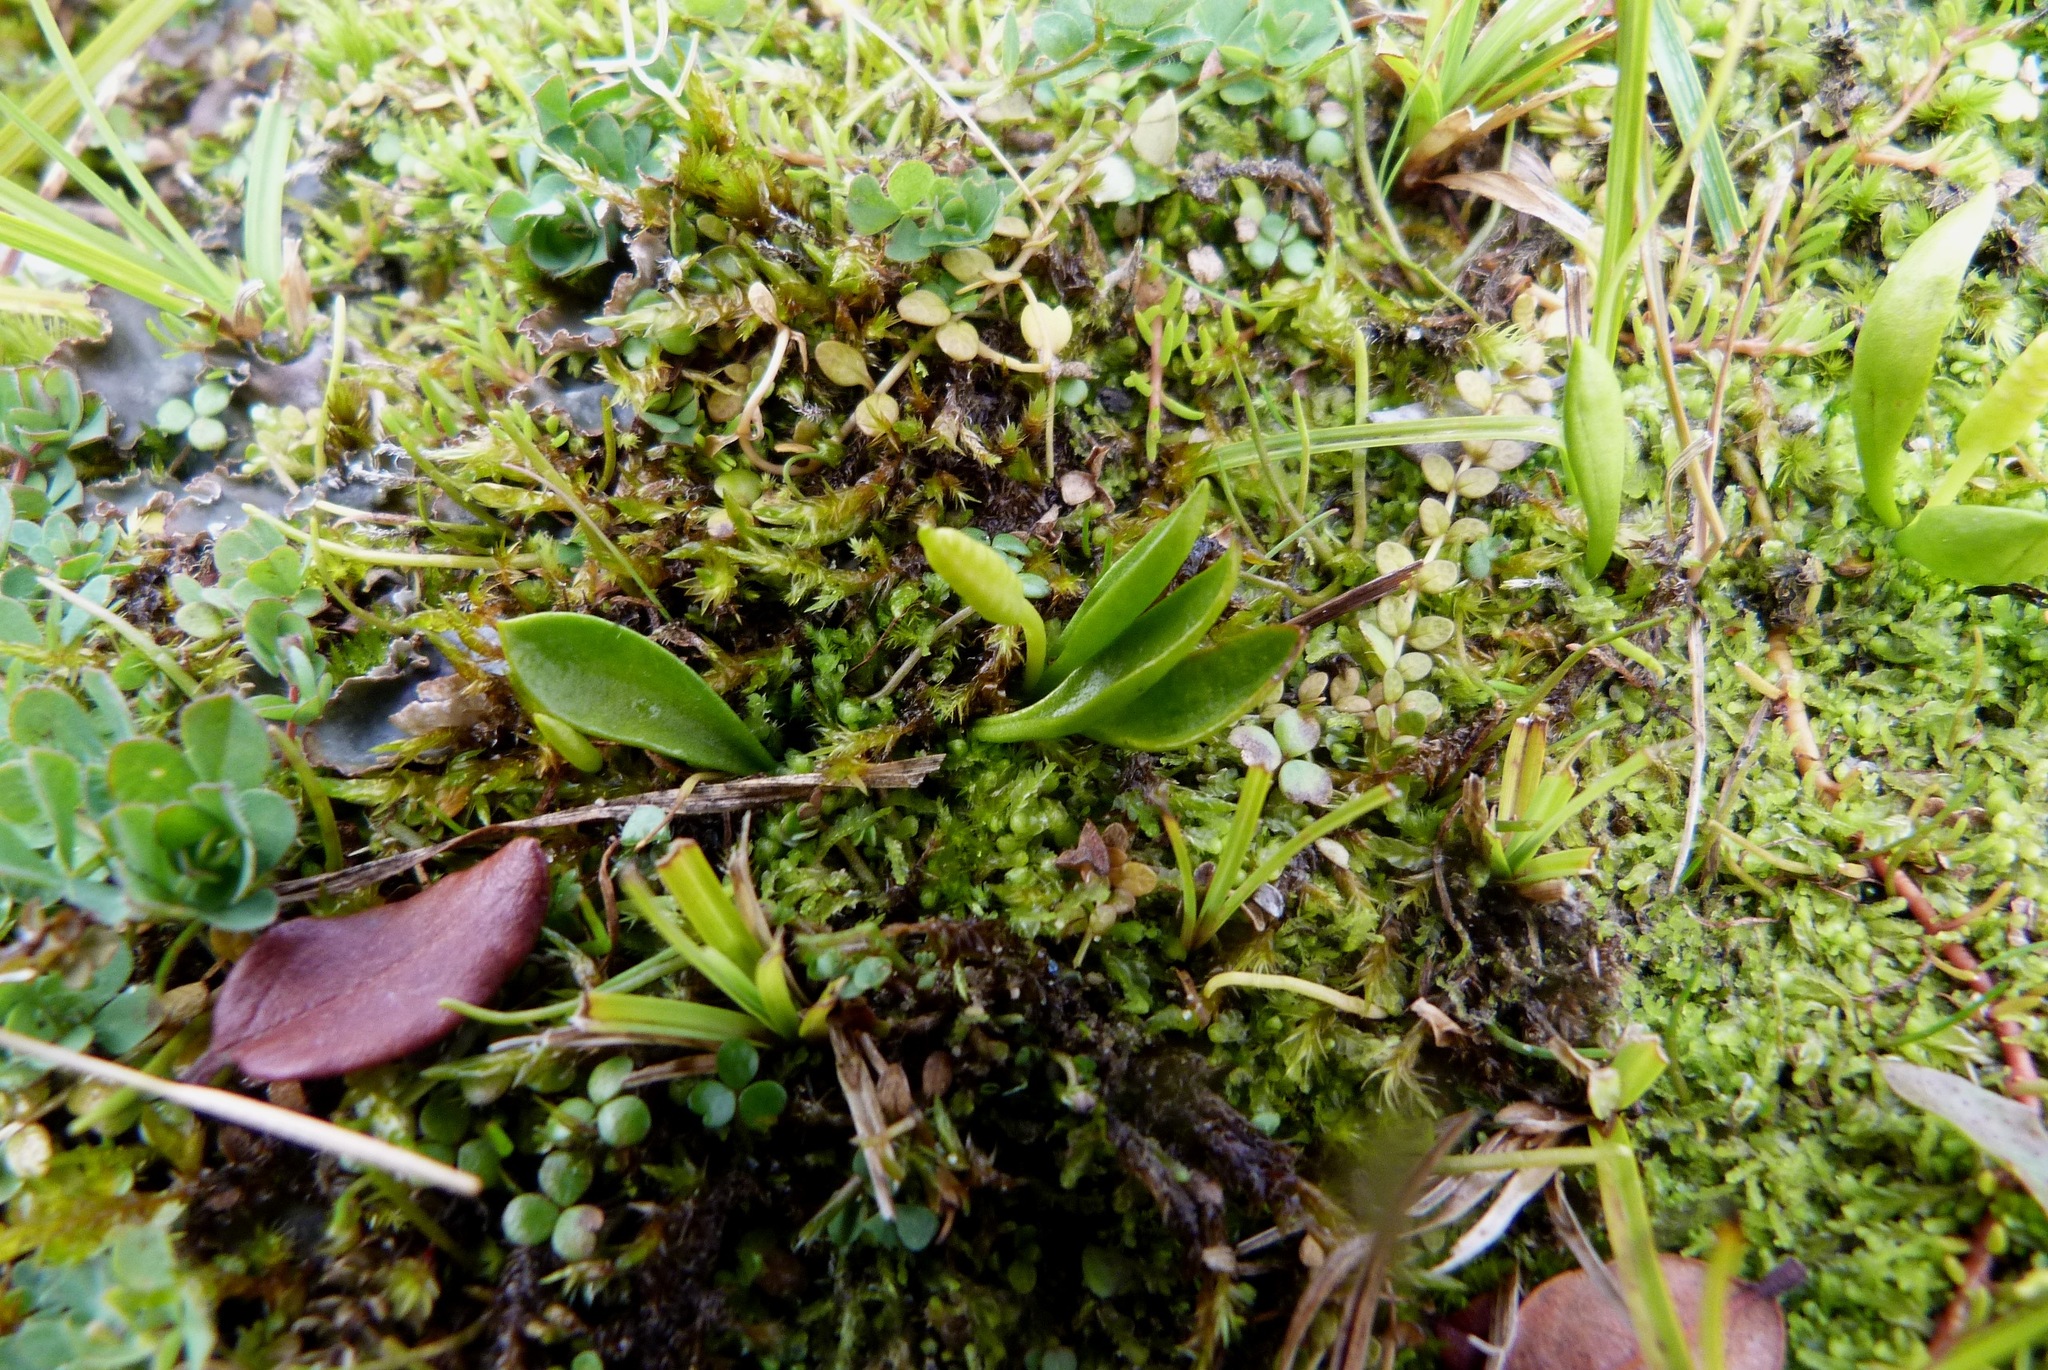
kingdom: Plantae
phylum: Tracheophyta
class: Polypodiopsida
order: Ophioglossales
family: Ophioglossaceae
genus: Ophioglossum
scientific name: Ophioglossum coriaceum
